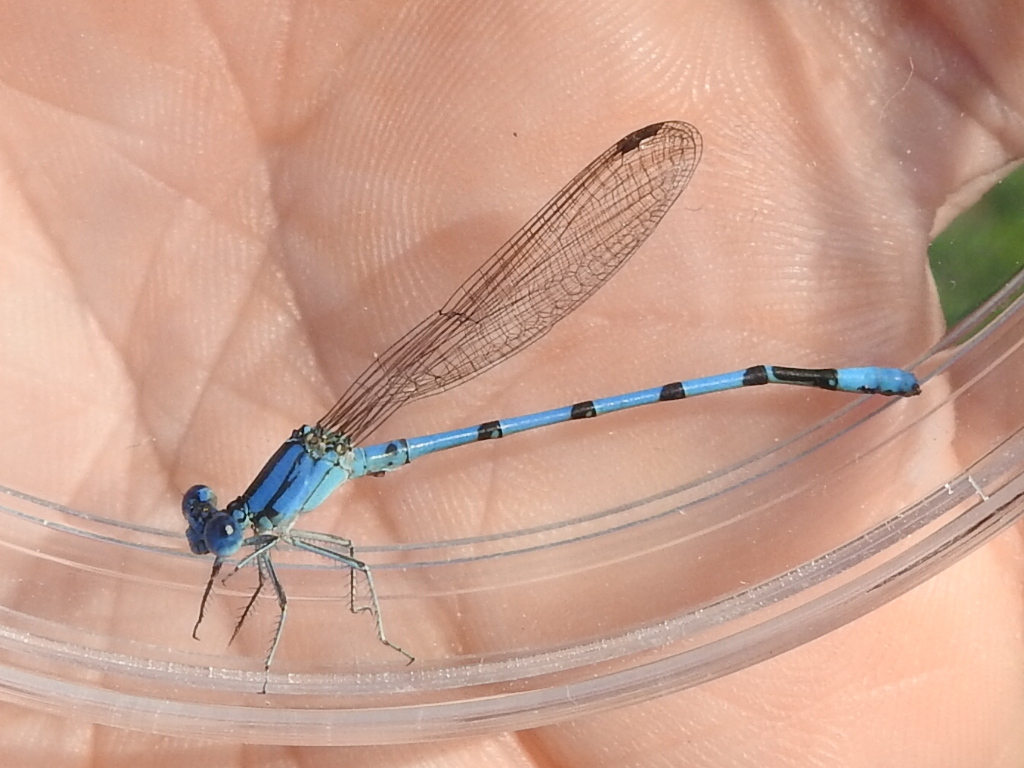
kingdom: Animalia
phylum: Arthropoda
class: Insecta
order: Odonata
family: Coenagrionidae
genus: Argia
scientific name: Argia nahuana
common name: Aztec dancer
